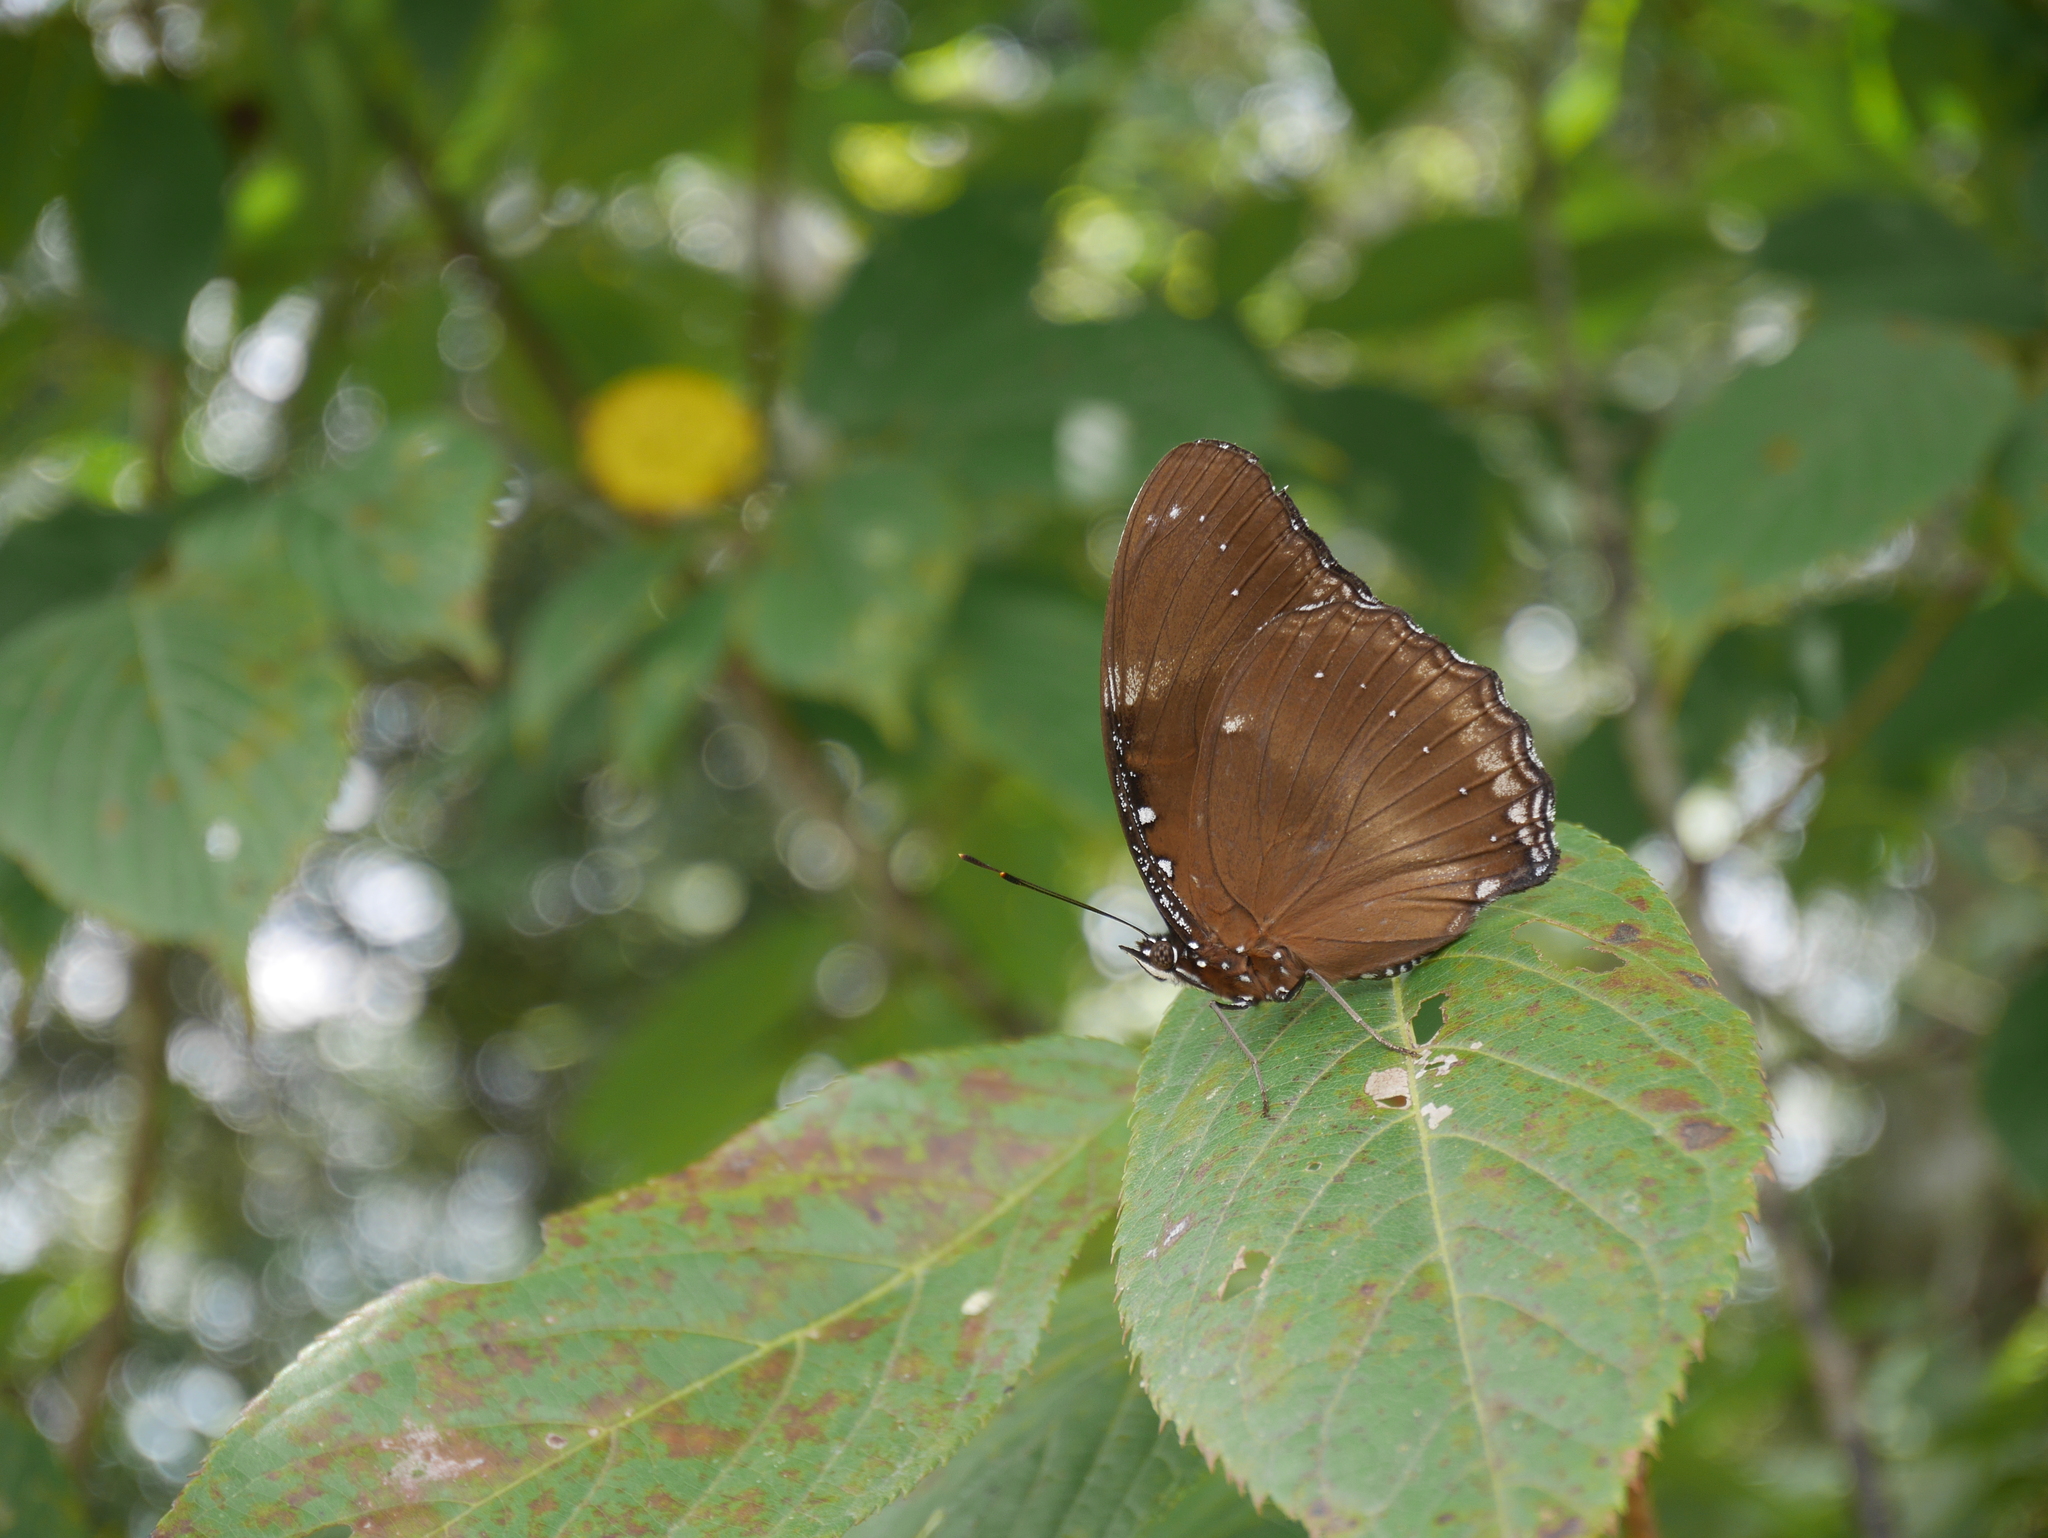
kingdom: Animalia
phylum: Arthropoda
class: Insecta
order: Lepidoptera
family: Nymphalidae
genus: Hypolimnas
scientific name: Hypolimnas bolina
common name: Great eggfly
